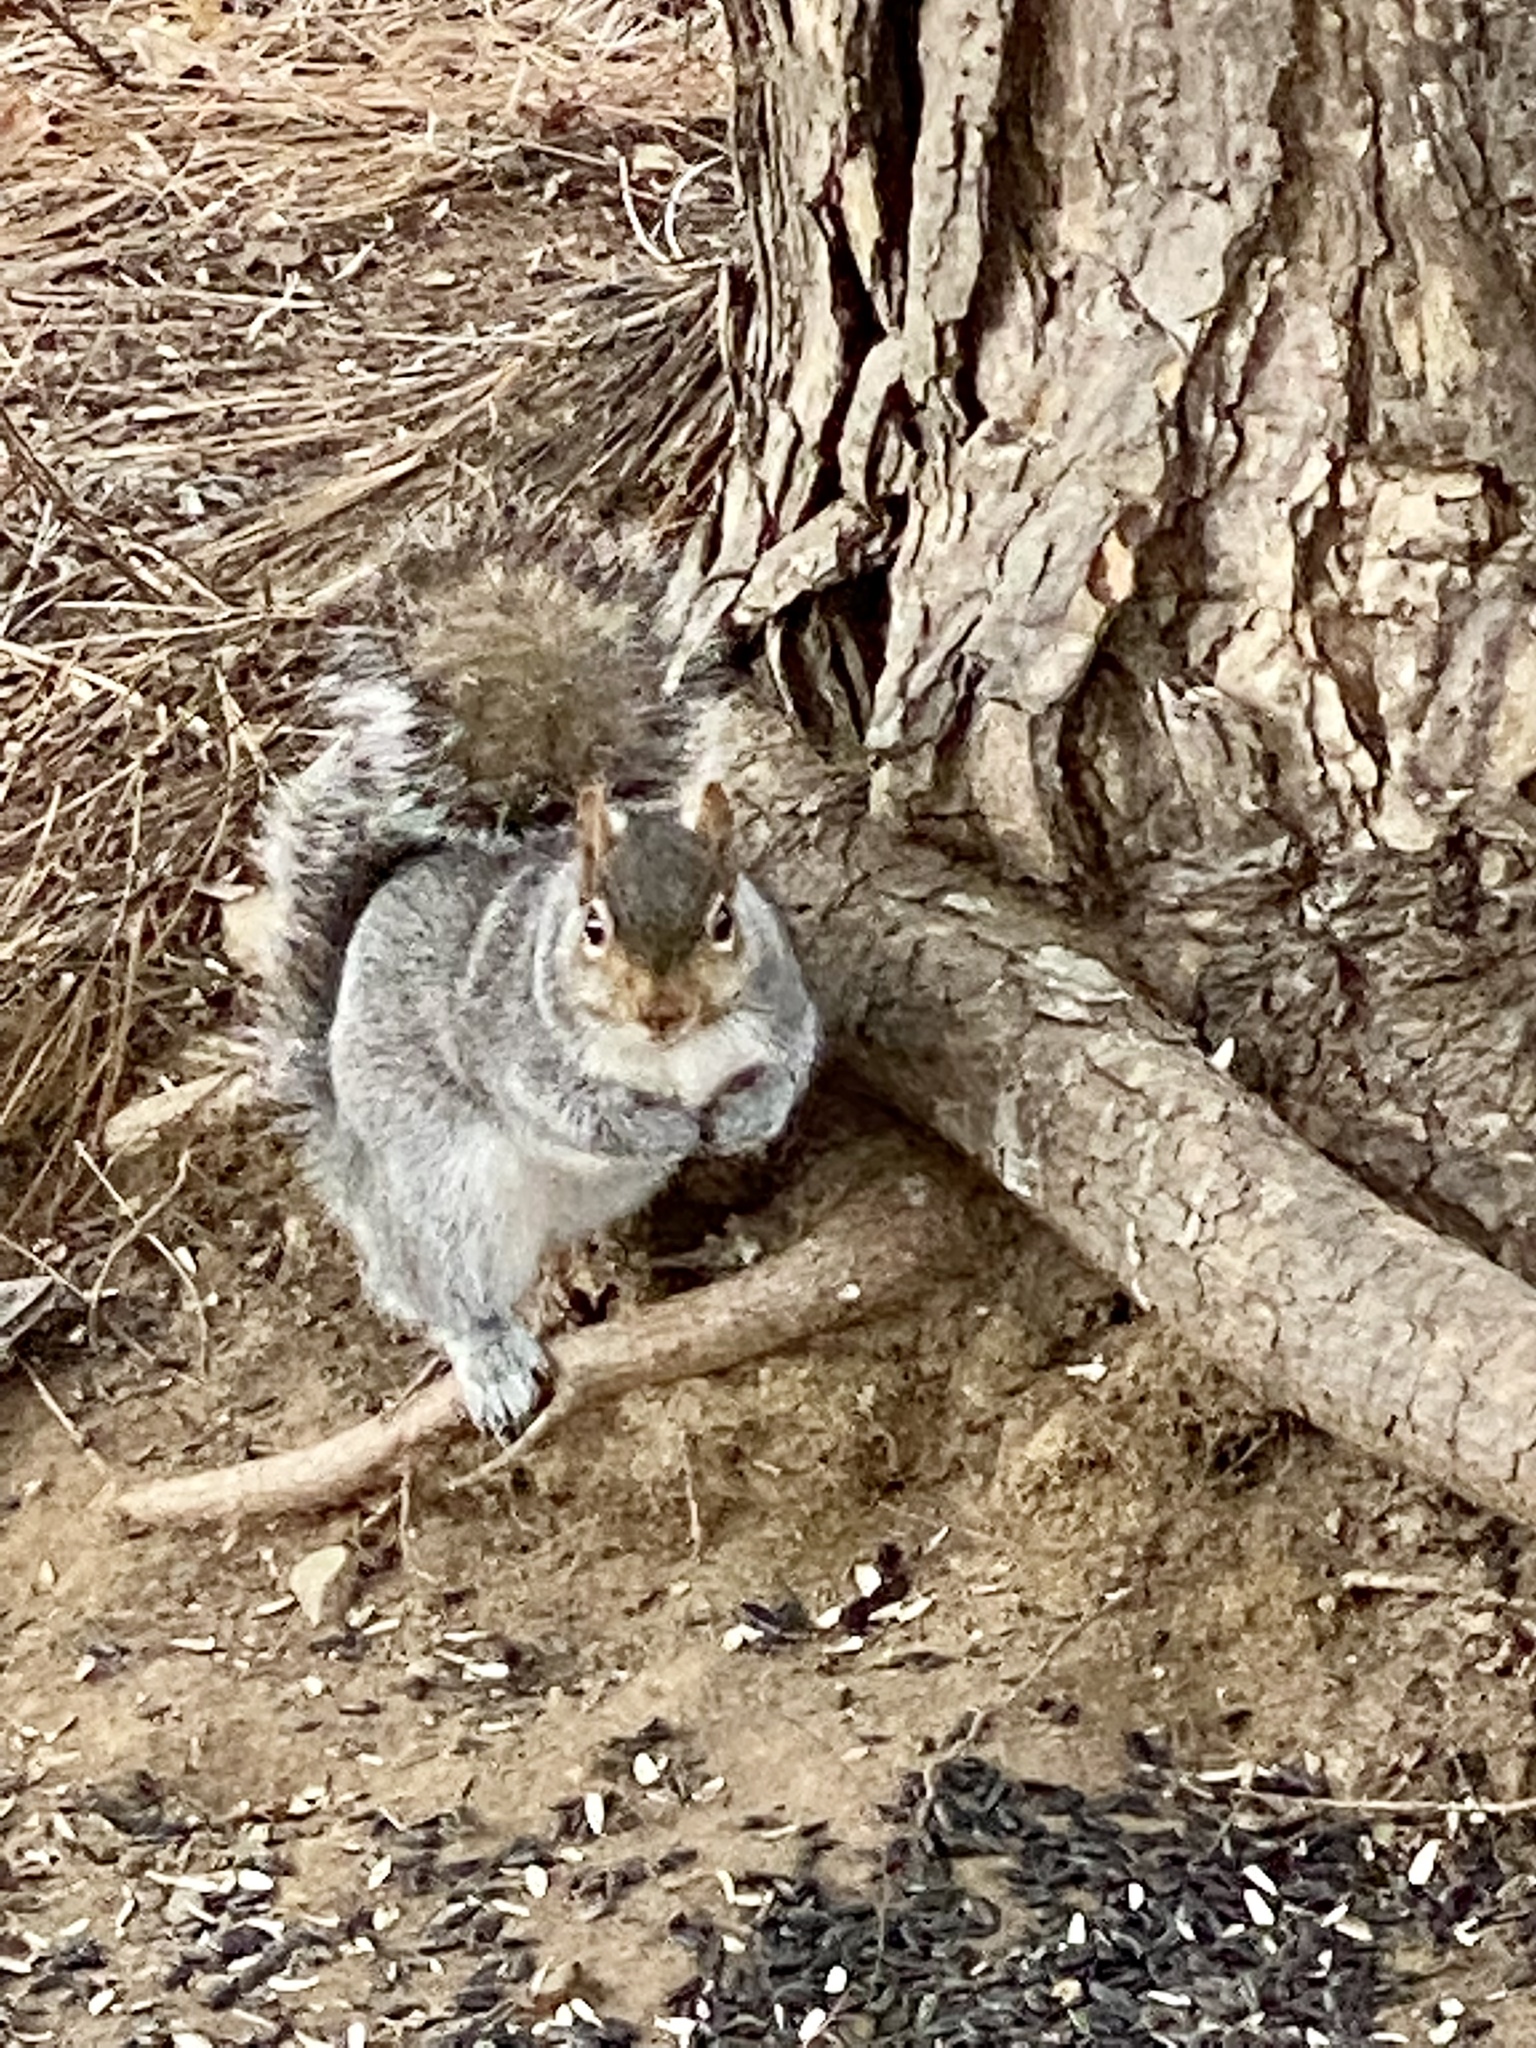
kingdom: Animalia
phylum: Chordata
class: Mammalia
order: Rodentia
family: Sciuridae
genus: Sciurus
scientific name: Sciurus carolinensis
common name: Eastern gray squirrel
